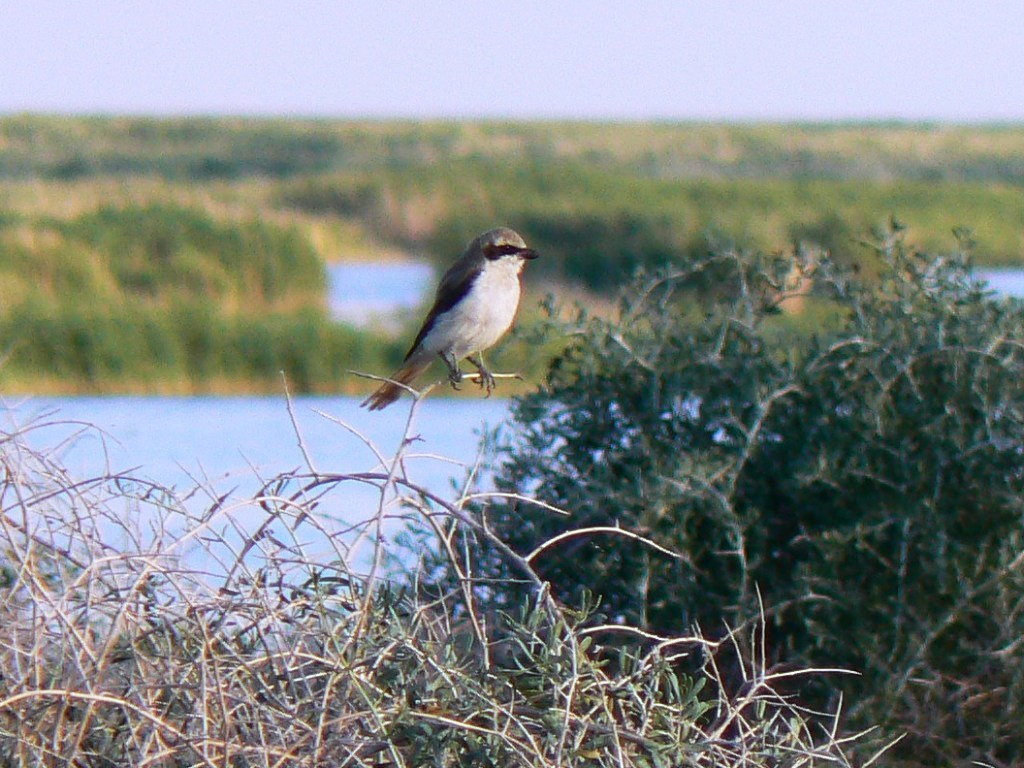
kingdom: Animalia
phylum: Chordata
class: Aves
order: Passeriformes
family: Laniidae
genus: Lanius
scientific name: Lanius phoenicuroides
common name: Red-tailed shrike
